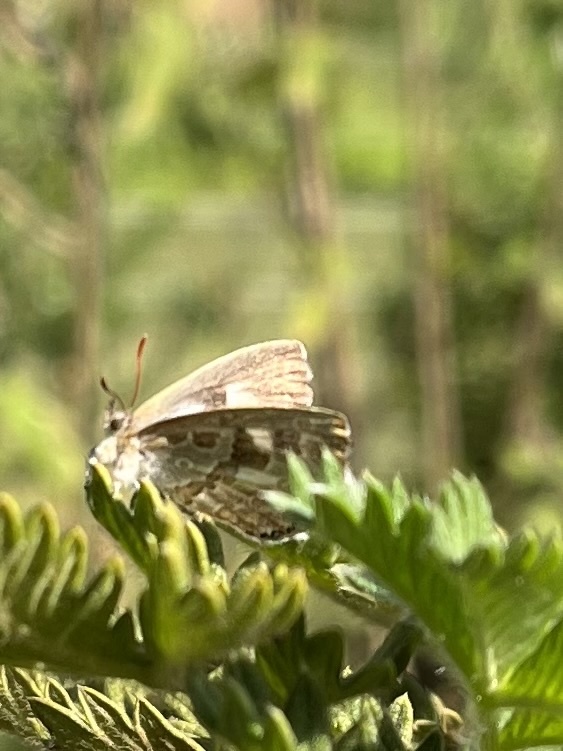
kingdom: Animalia
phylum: Arthropoda
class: Insecta
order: Lepidoptera
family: Lycaenidae
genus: Lachnocnema
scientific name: Lachnocnema bibulus
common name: Common woolly legs
